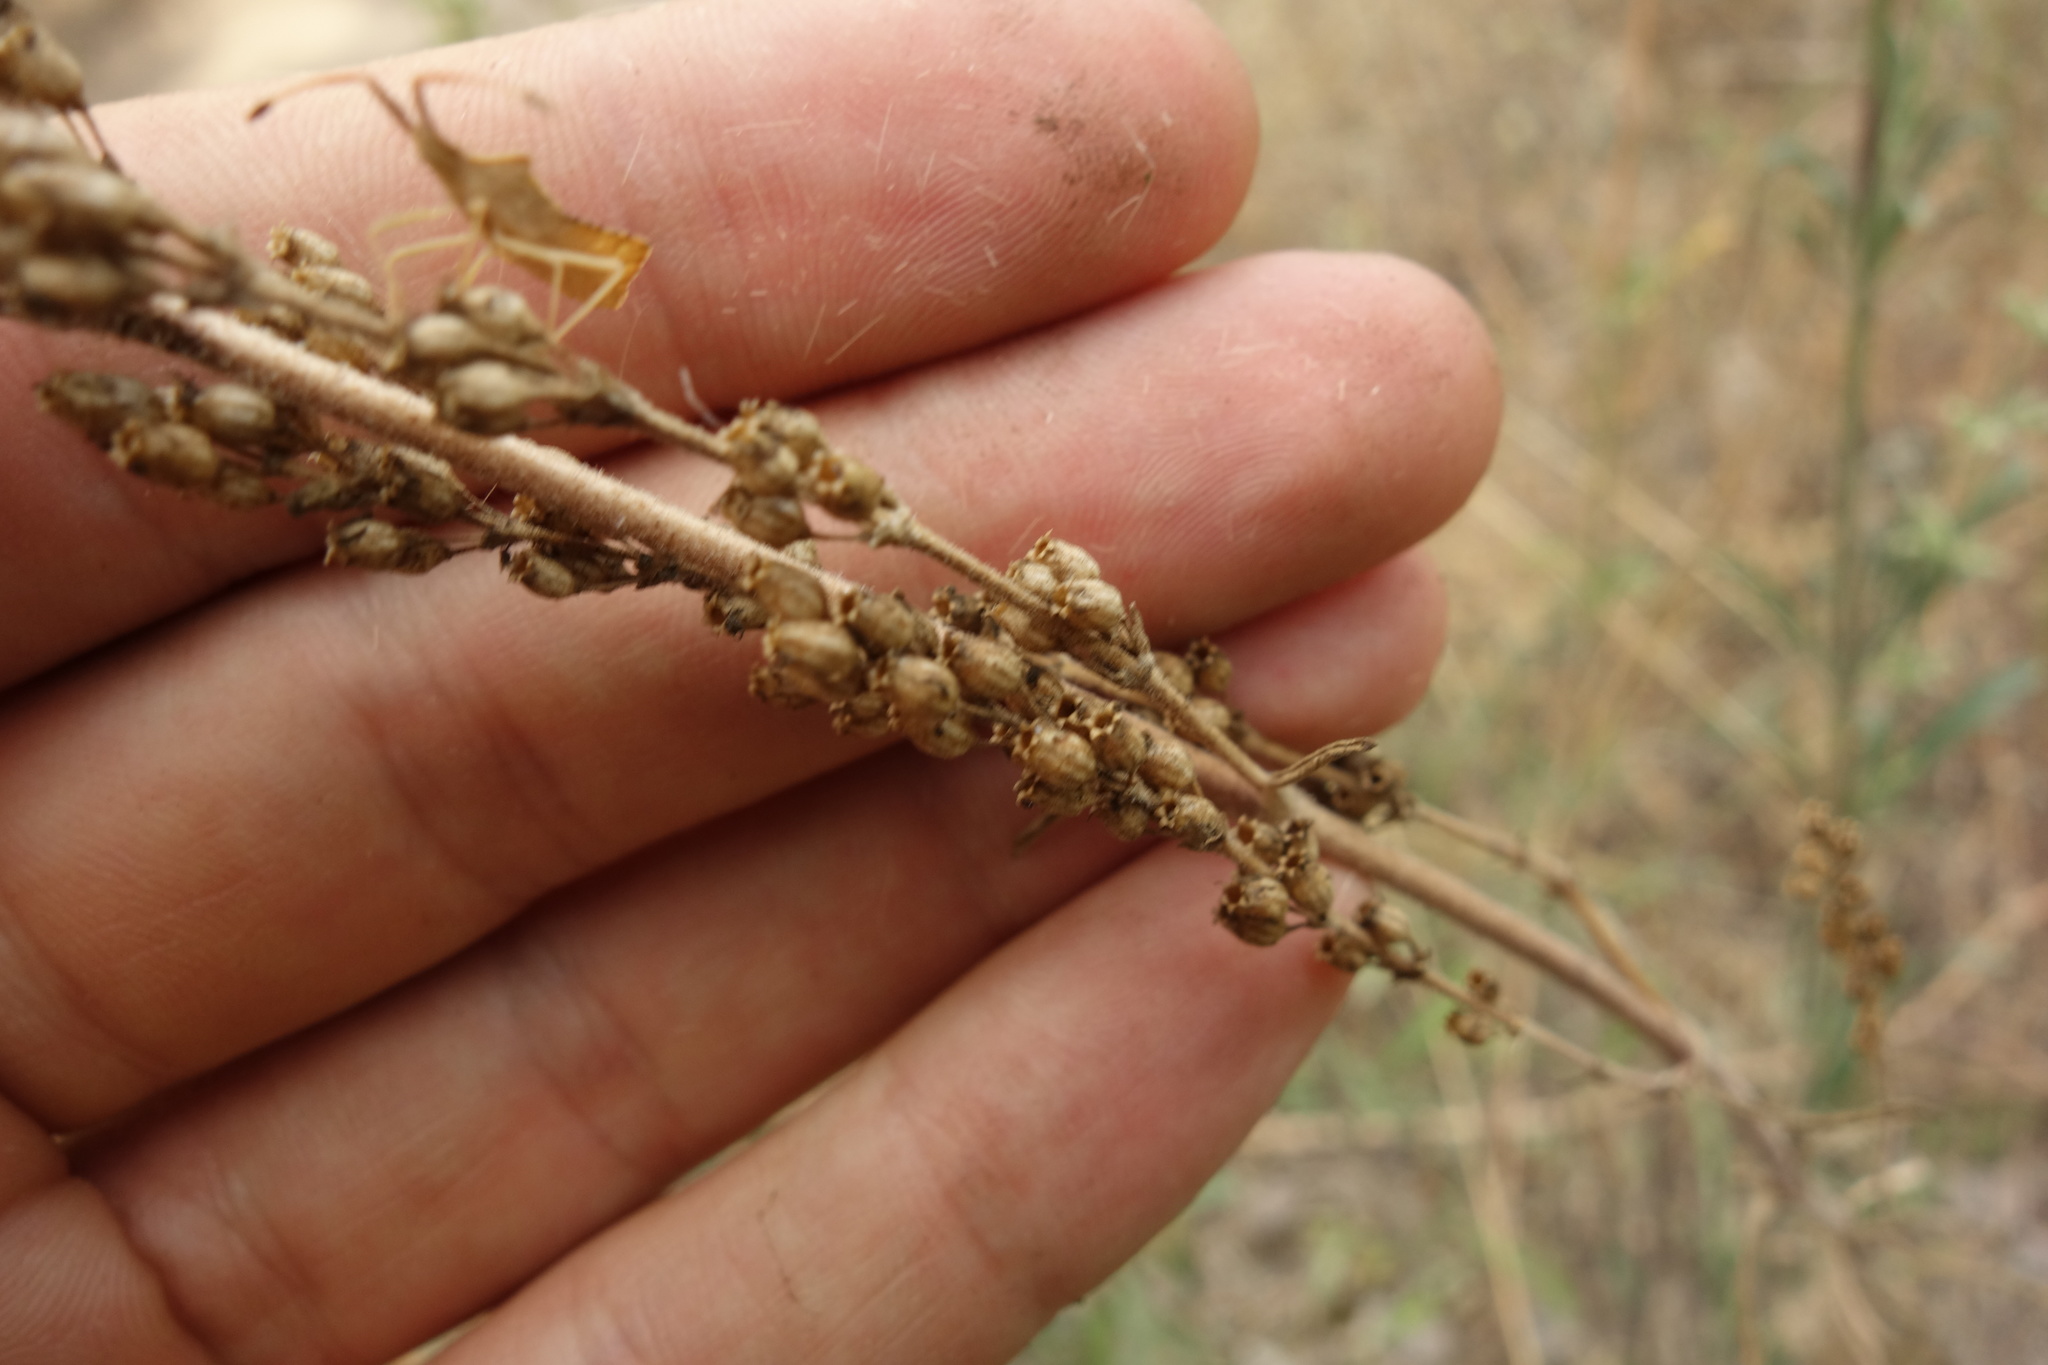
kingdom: Plantae
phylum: Tracheophyta
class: Magnoliopsida
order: Caryophyllales
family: Caryophyllaceae
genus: Silene
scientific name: Silene borysthenica
